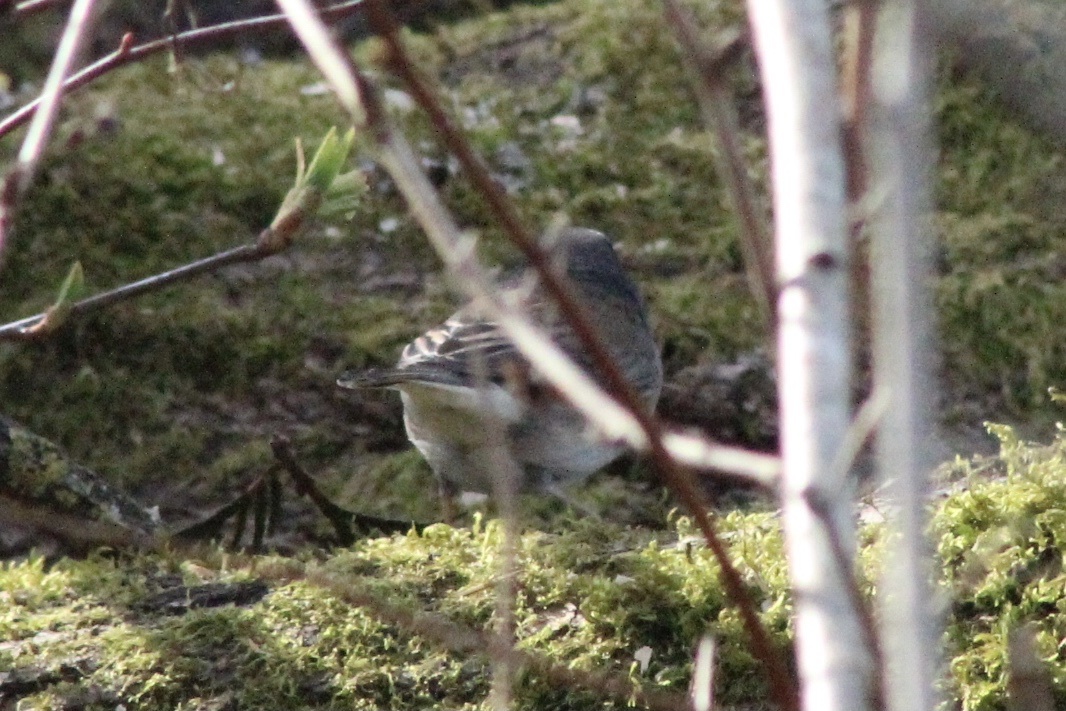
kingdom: Animalia
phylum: Chordata
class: Aves
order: Passeriformes
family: Passerellidae
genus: Junco
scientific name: Junco hyemalis
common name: Dark-eyed junco
